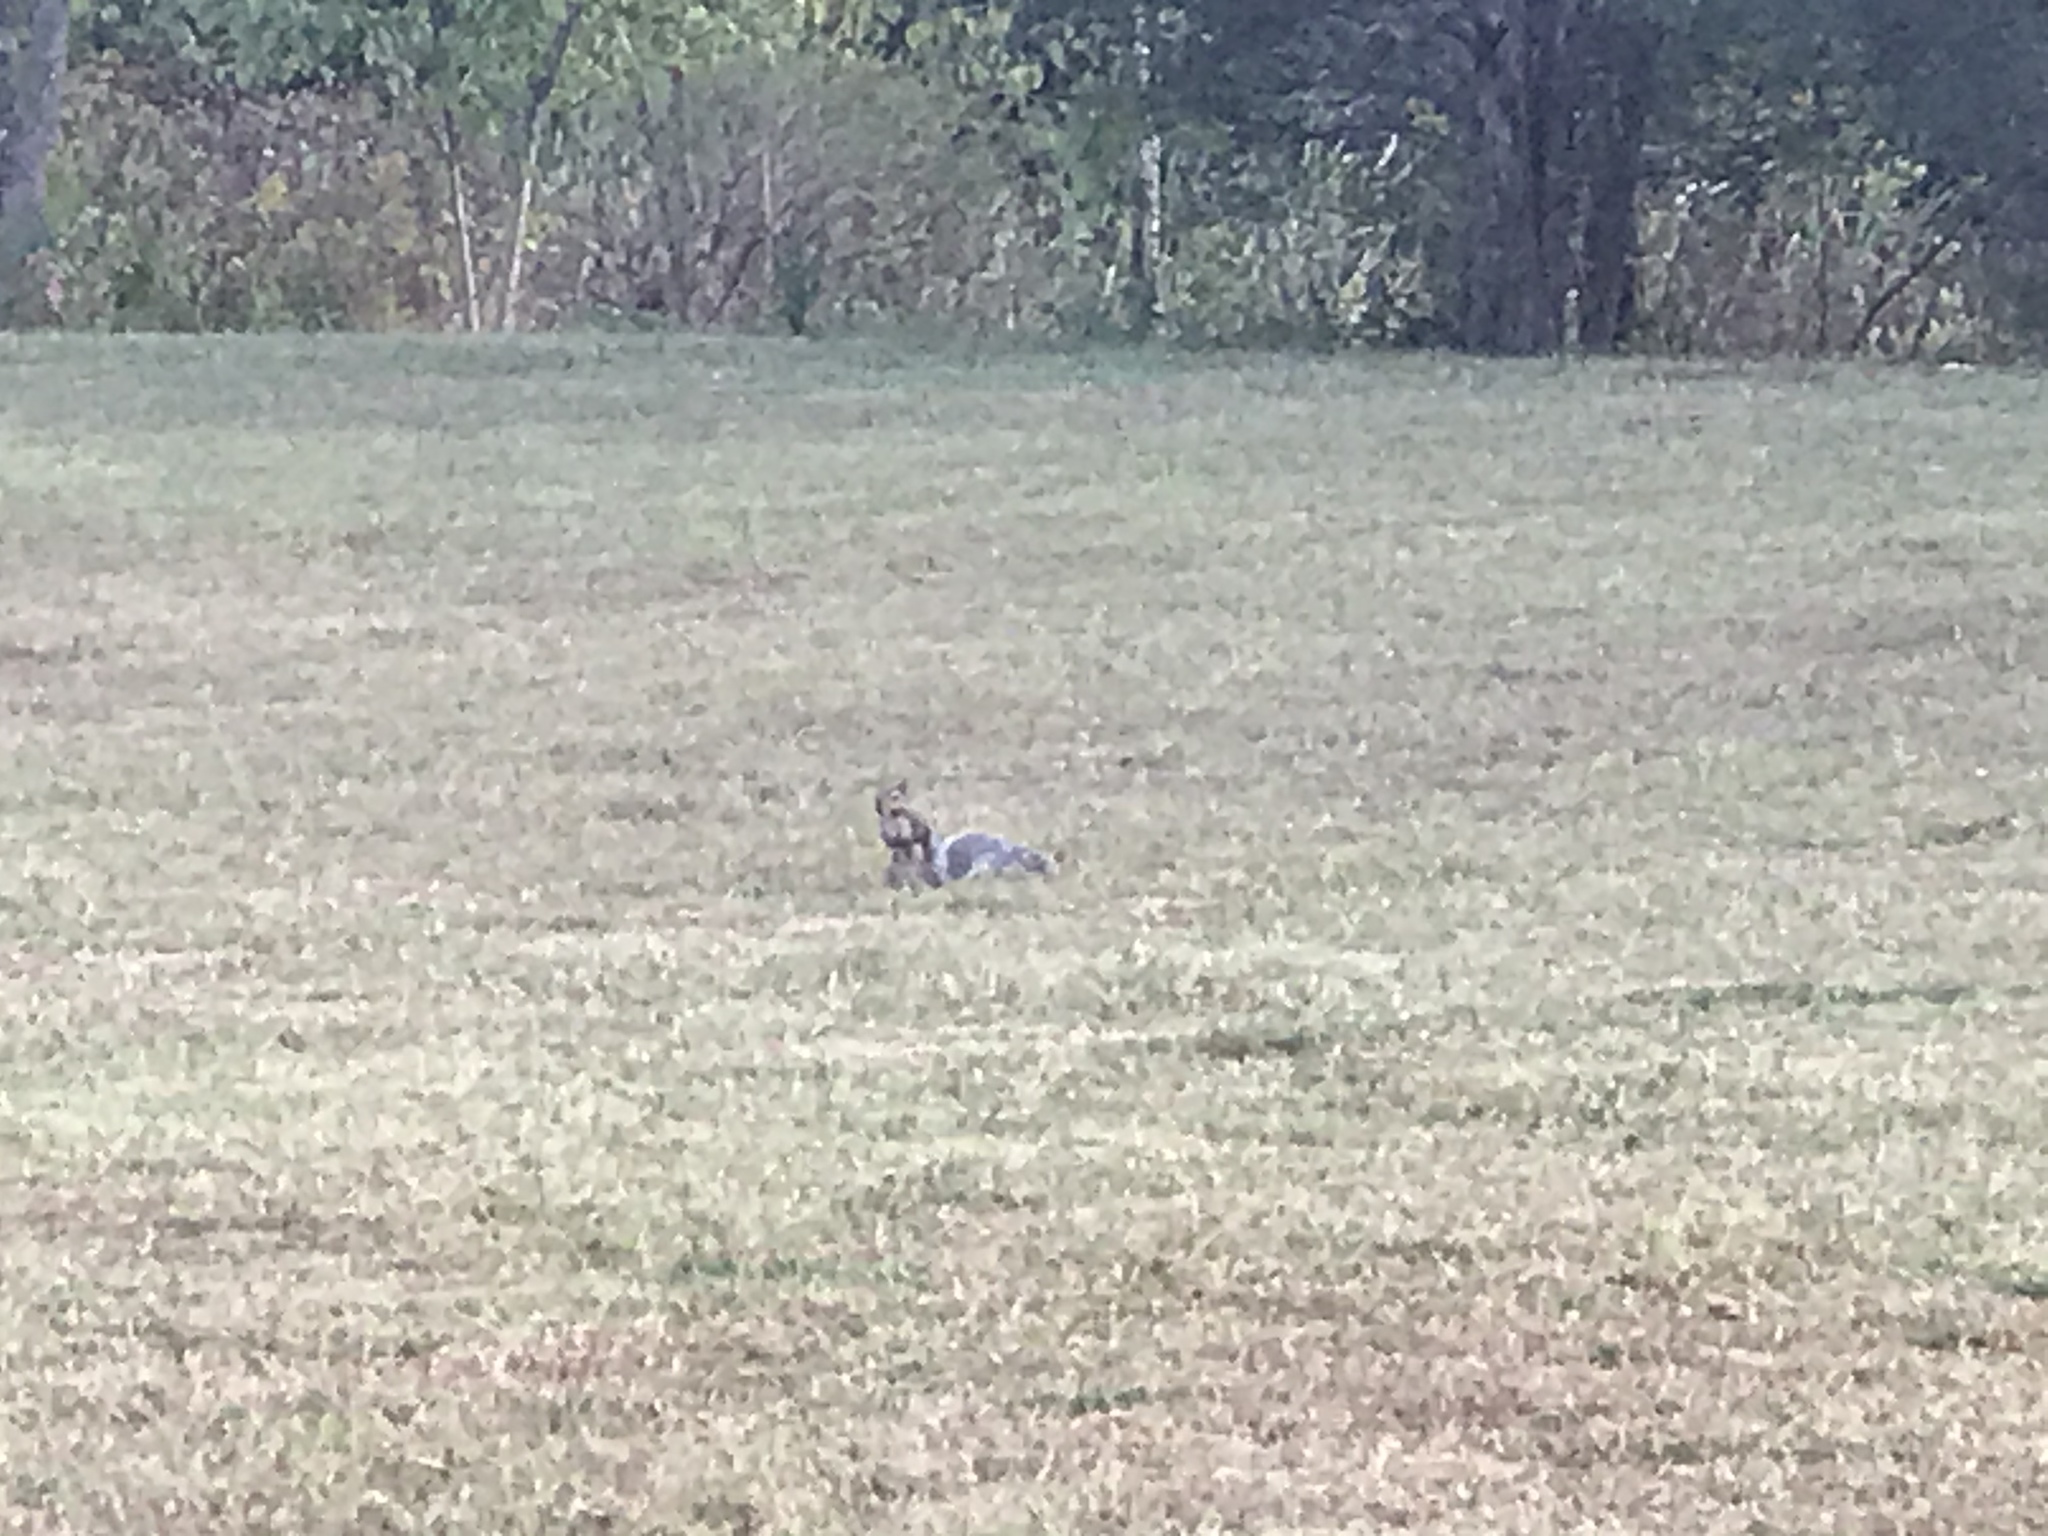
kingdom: Animalia
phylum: Chordata
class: Mammalia
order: Rodentia
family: Sciuridae
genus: Sciurus
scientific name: Sciurus carolinensis
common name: Eastern gray squirrel
